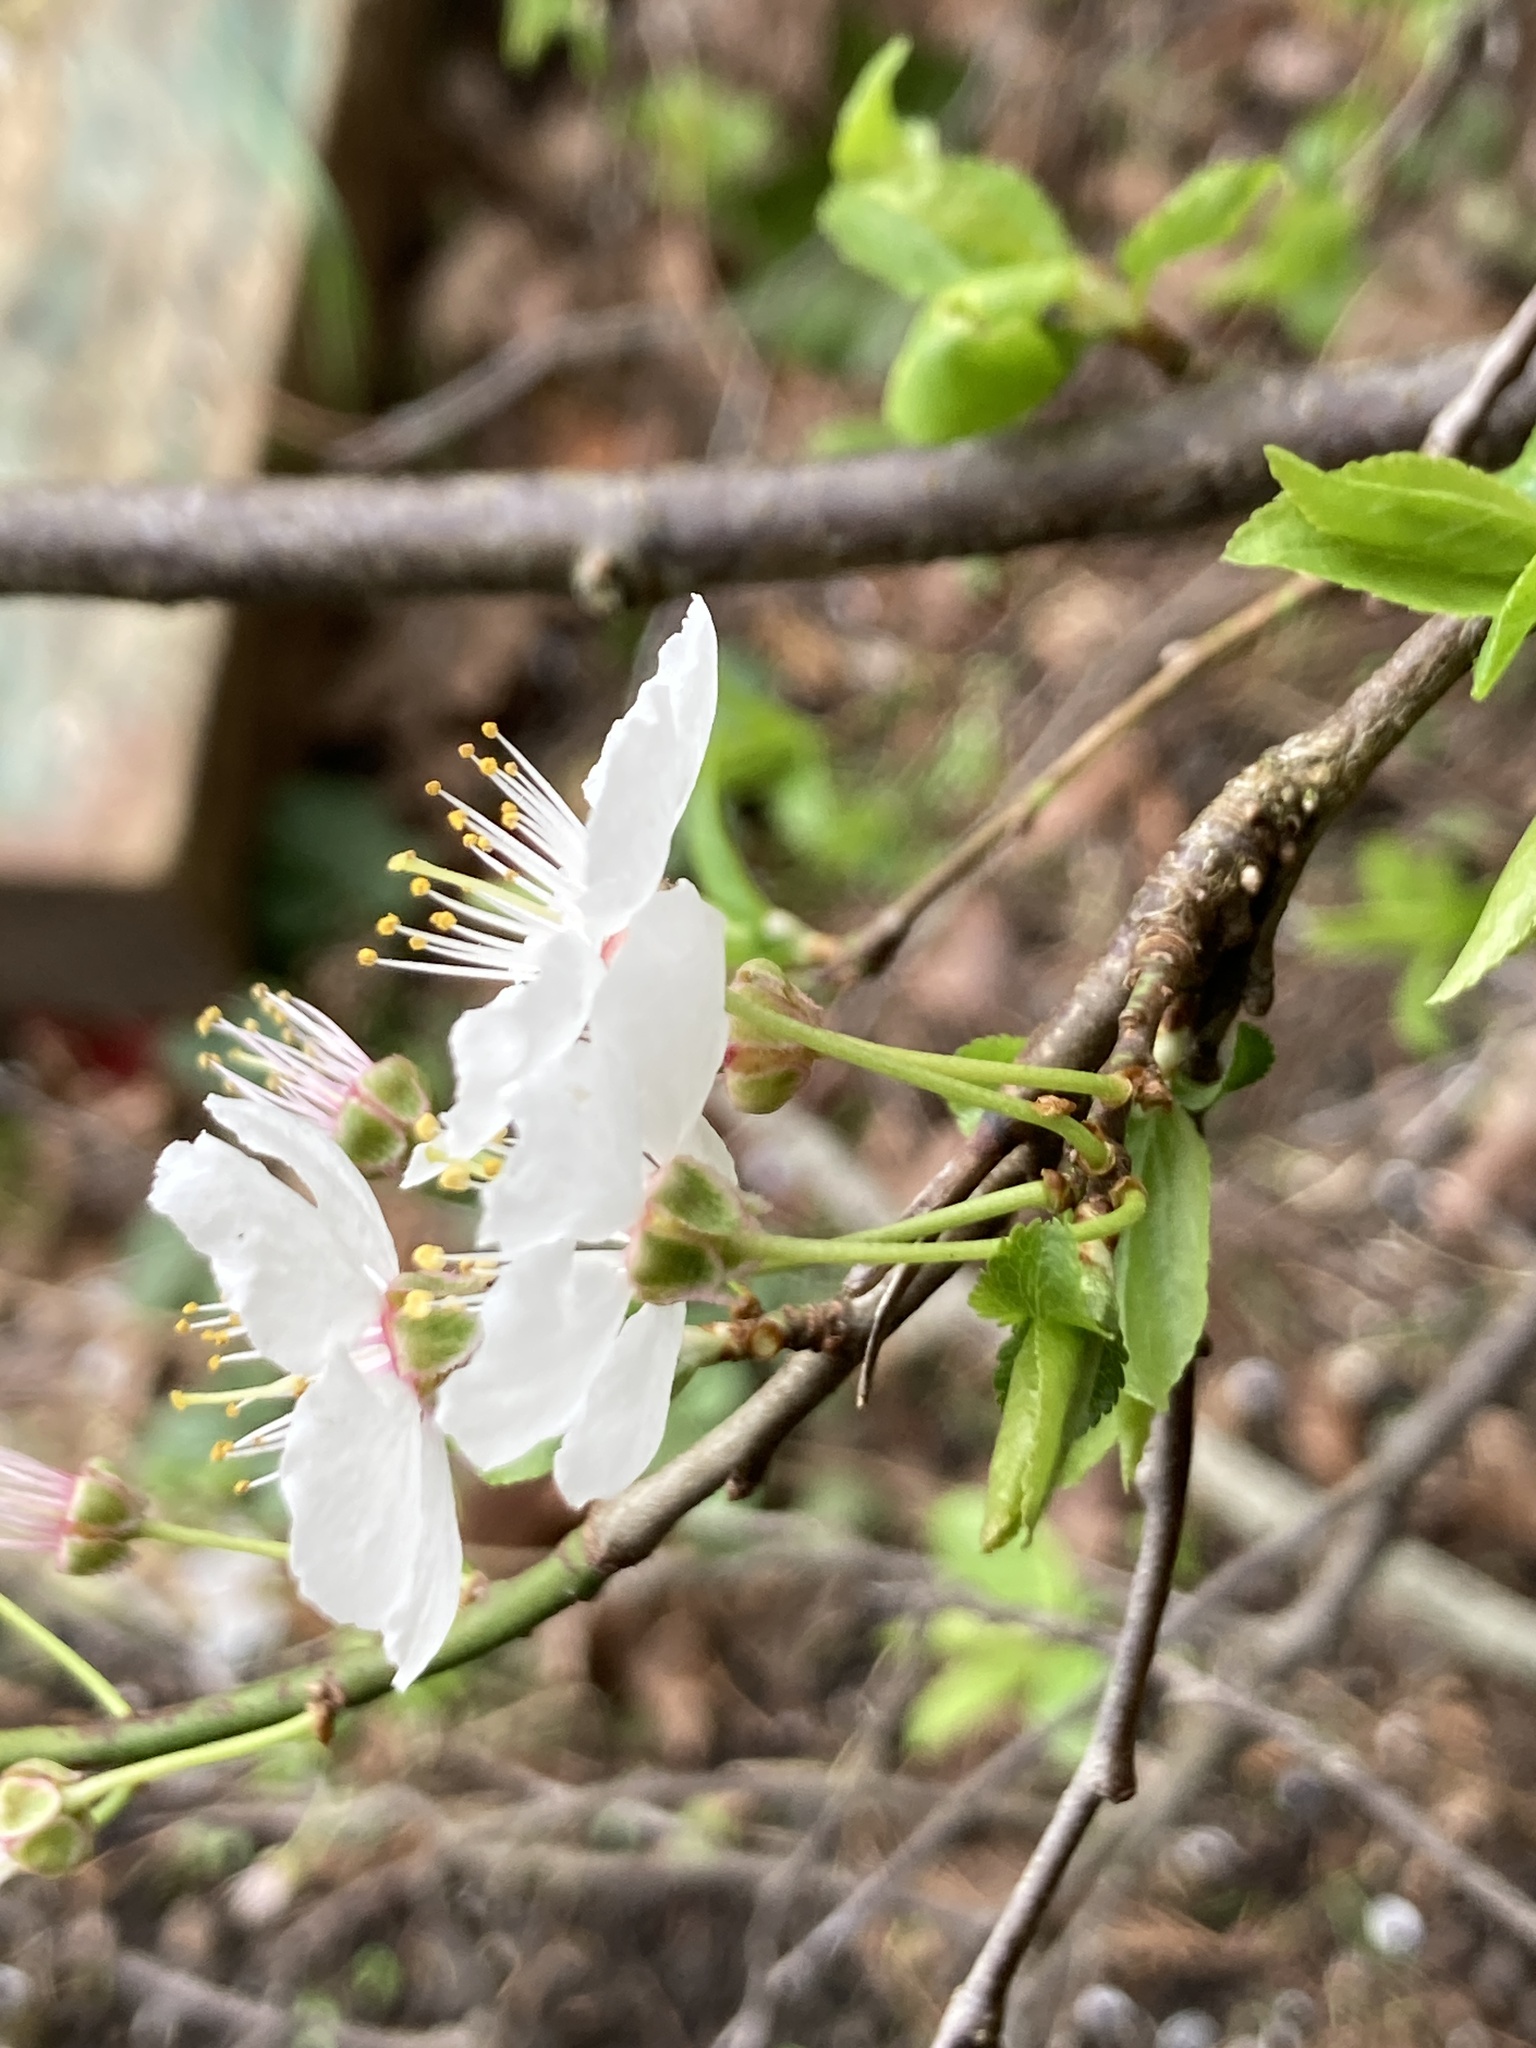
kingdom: Plantae
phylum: Tracheophyta
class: Magnoliopsida
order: Rosales
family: Rosaceae
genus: Prunus
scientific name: Prunus cerasifera
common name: Cherry plum
